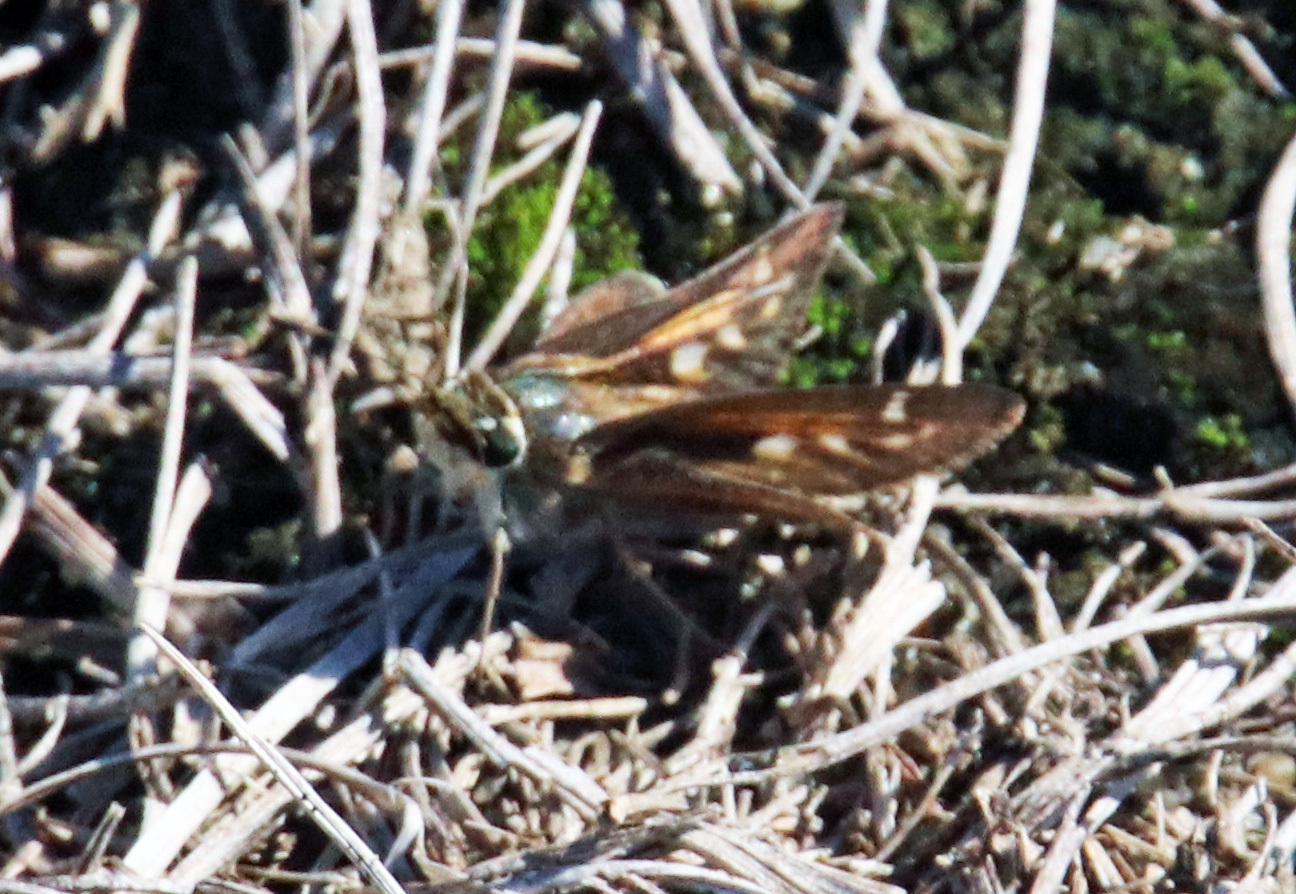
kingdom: Animalia
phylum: Arthropoda
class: Insecta
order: Lepidoptera
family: Hesperiidae
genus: Atalopedes
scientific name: Atalopedes
